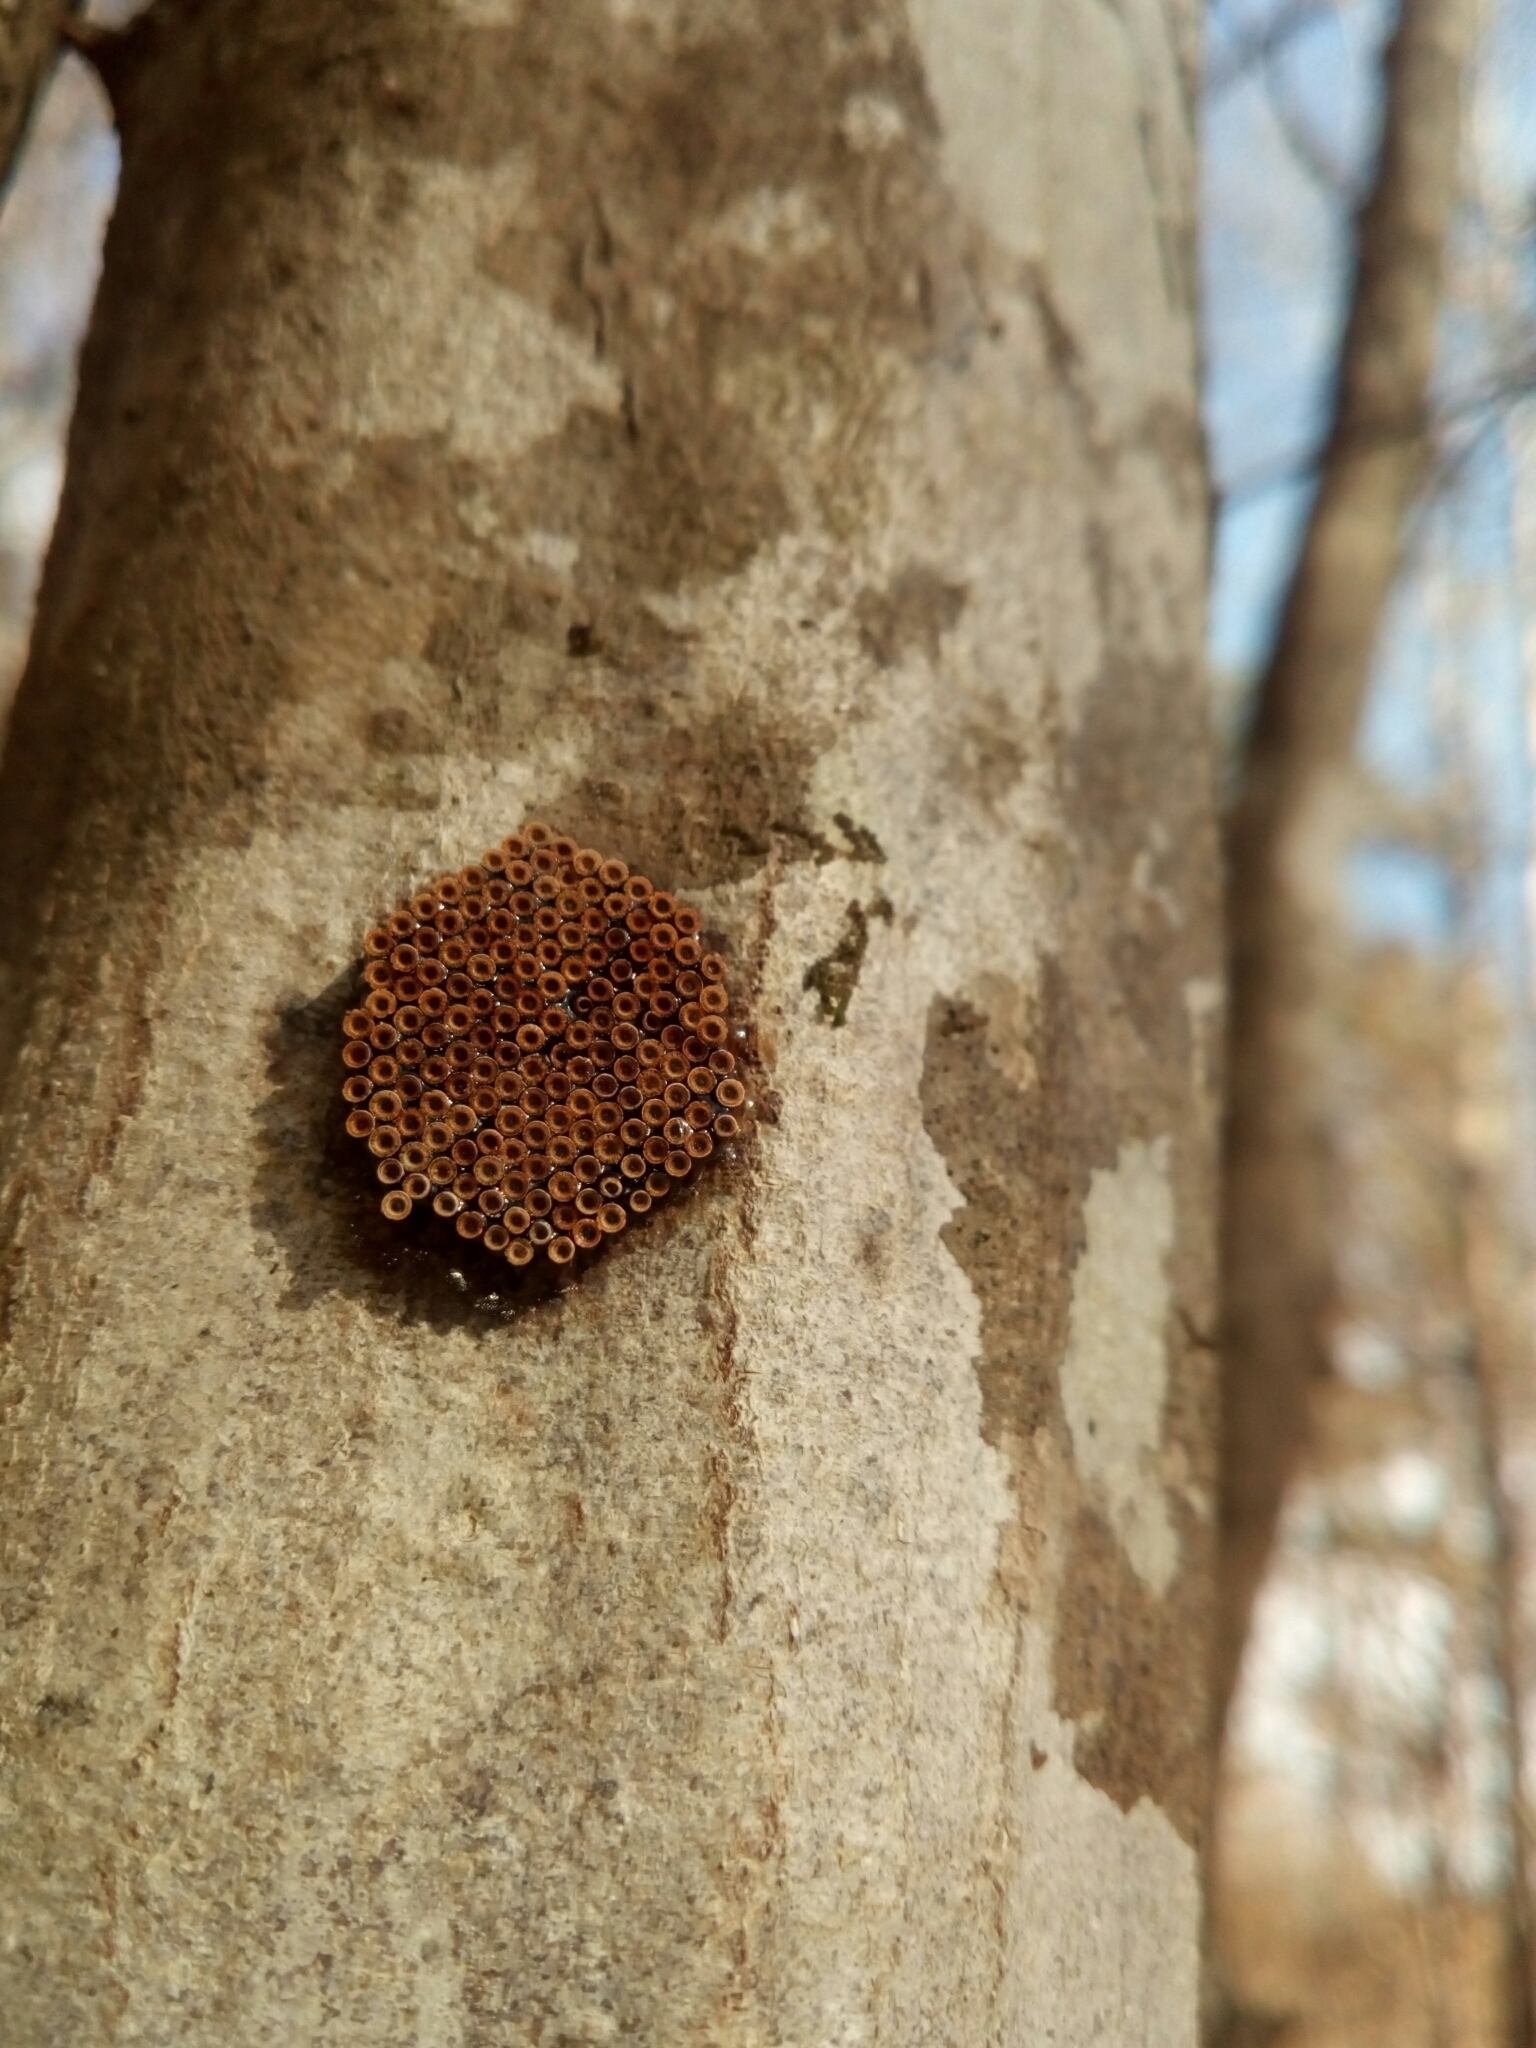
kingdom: Animalia
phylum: Arthropoda
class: Insecta
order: Hemiptera
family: Reduviidae
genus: Arilus
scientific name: Arilus cristatus
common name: North american wheel bug
